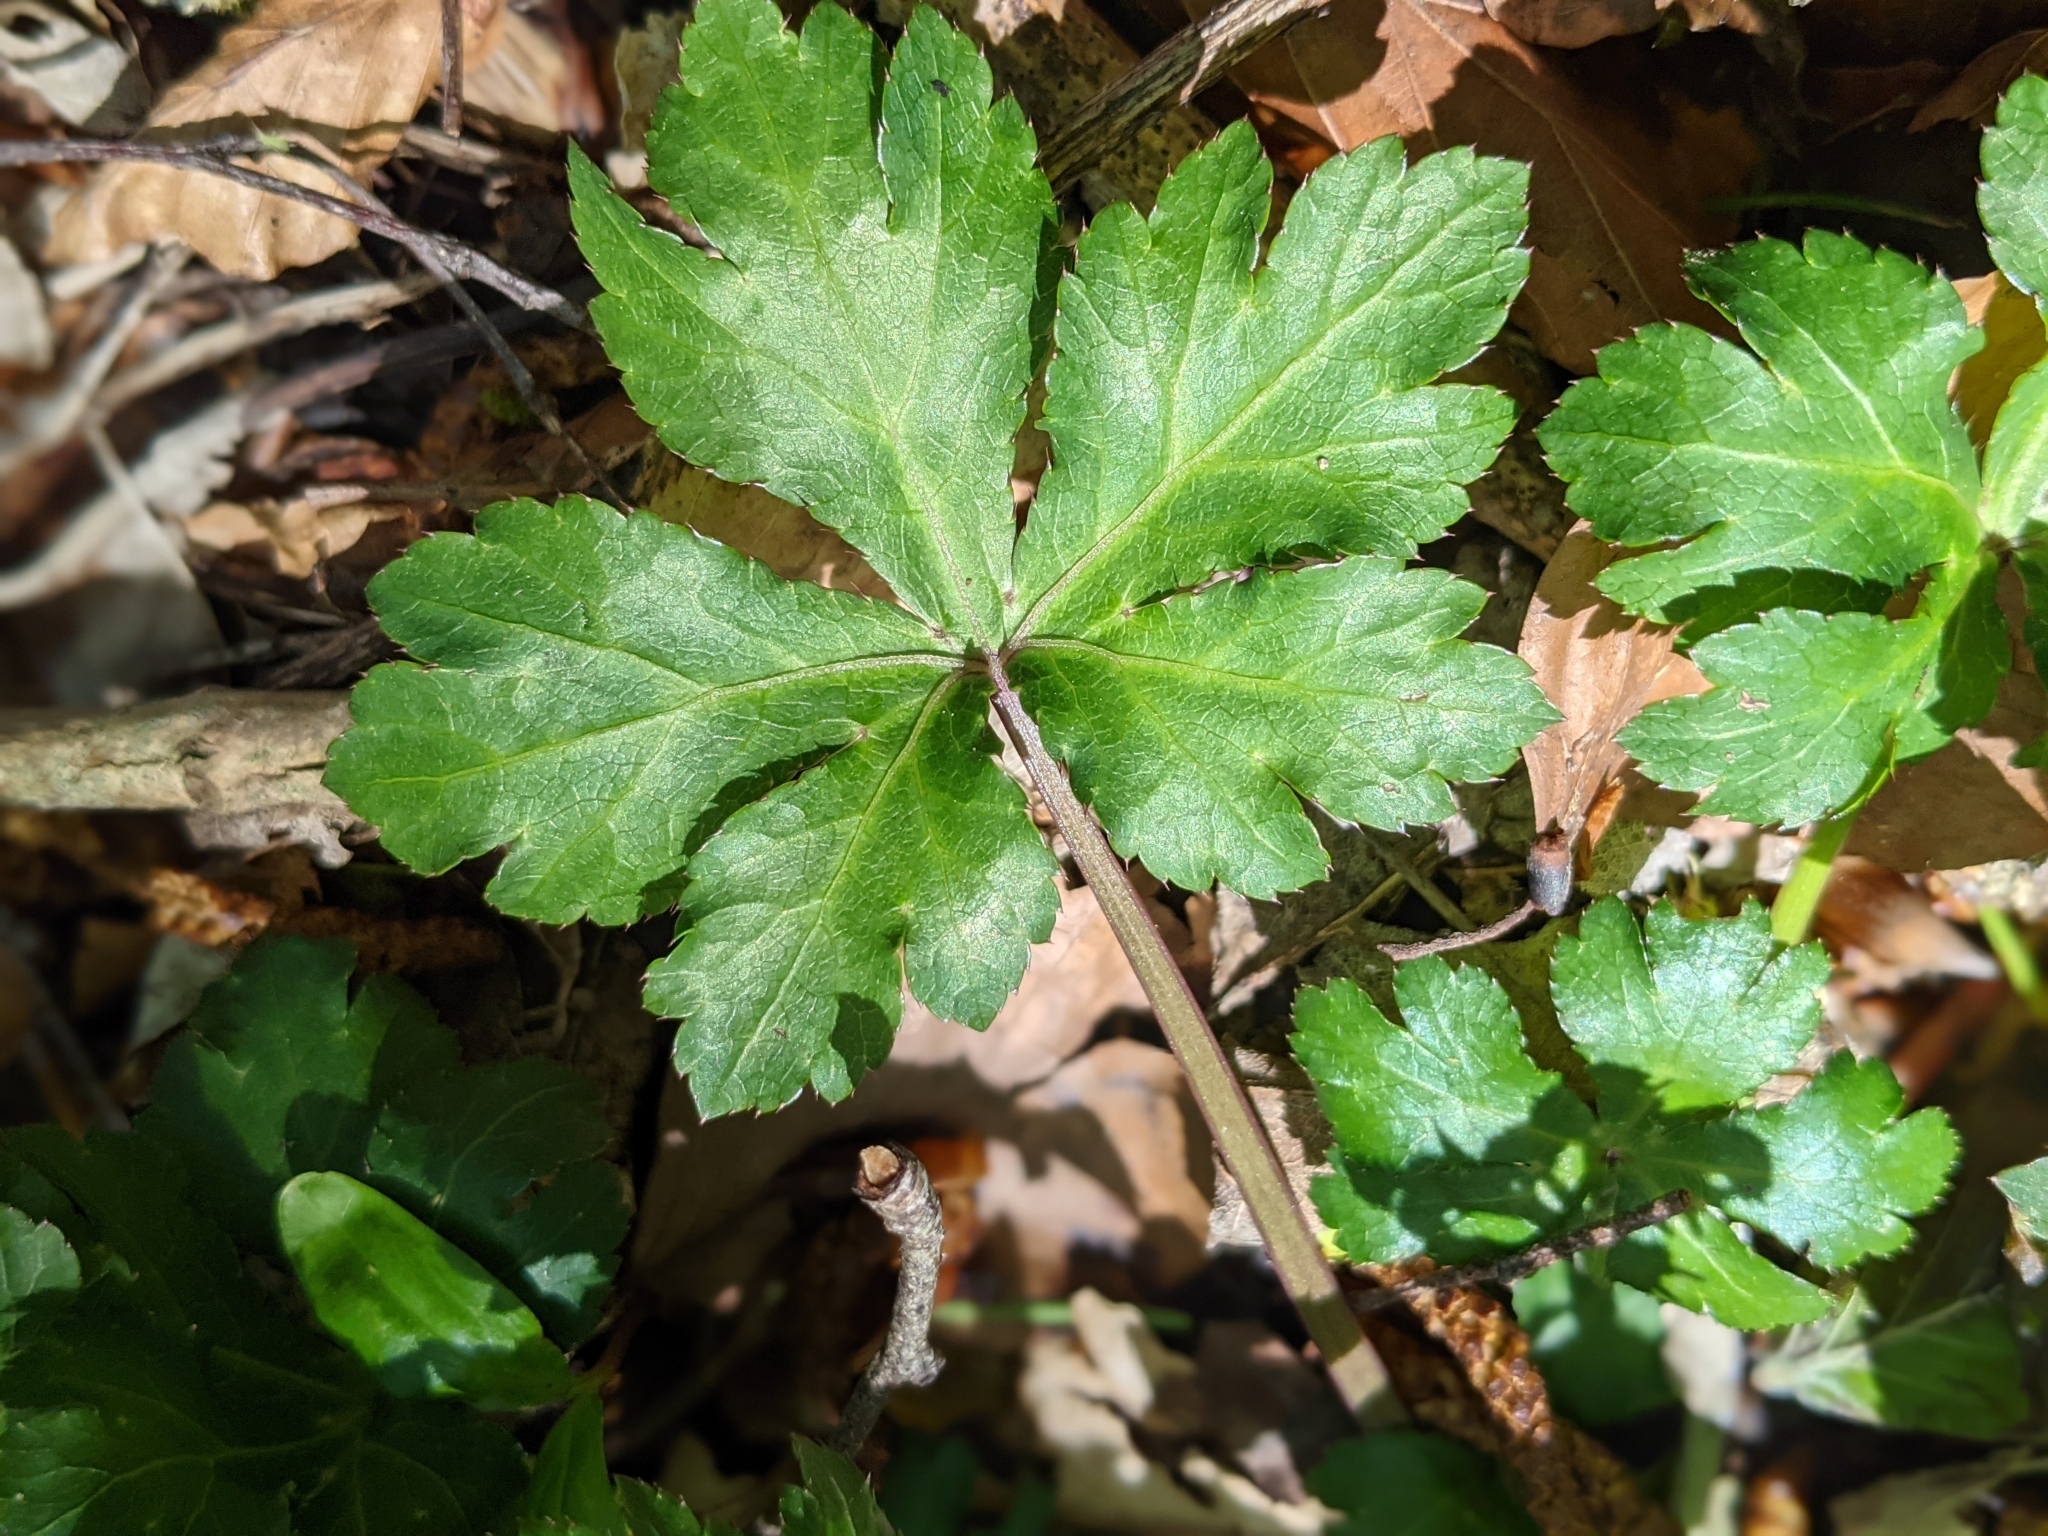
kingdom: Plantae
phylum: Tracheophyta
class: Magnoliopsida
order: Apiales
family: Apiaceae
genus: Sanicula
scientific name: Sanicula europaea
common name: Sanicle
